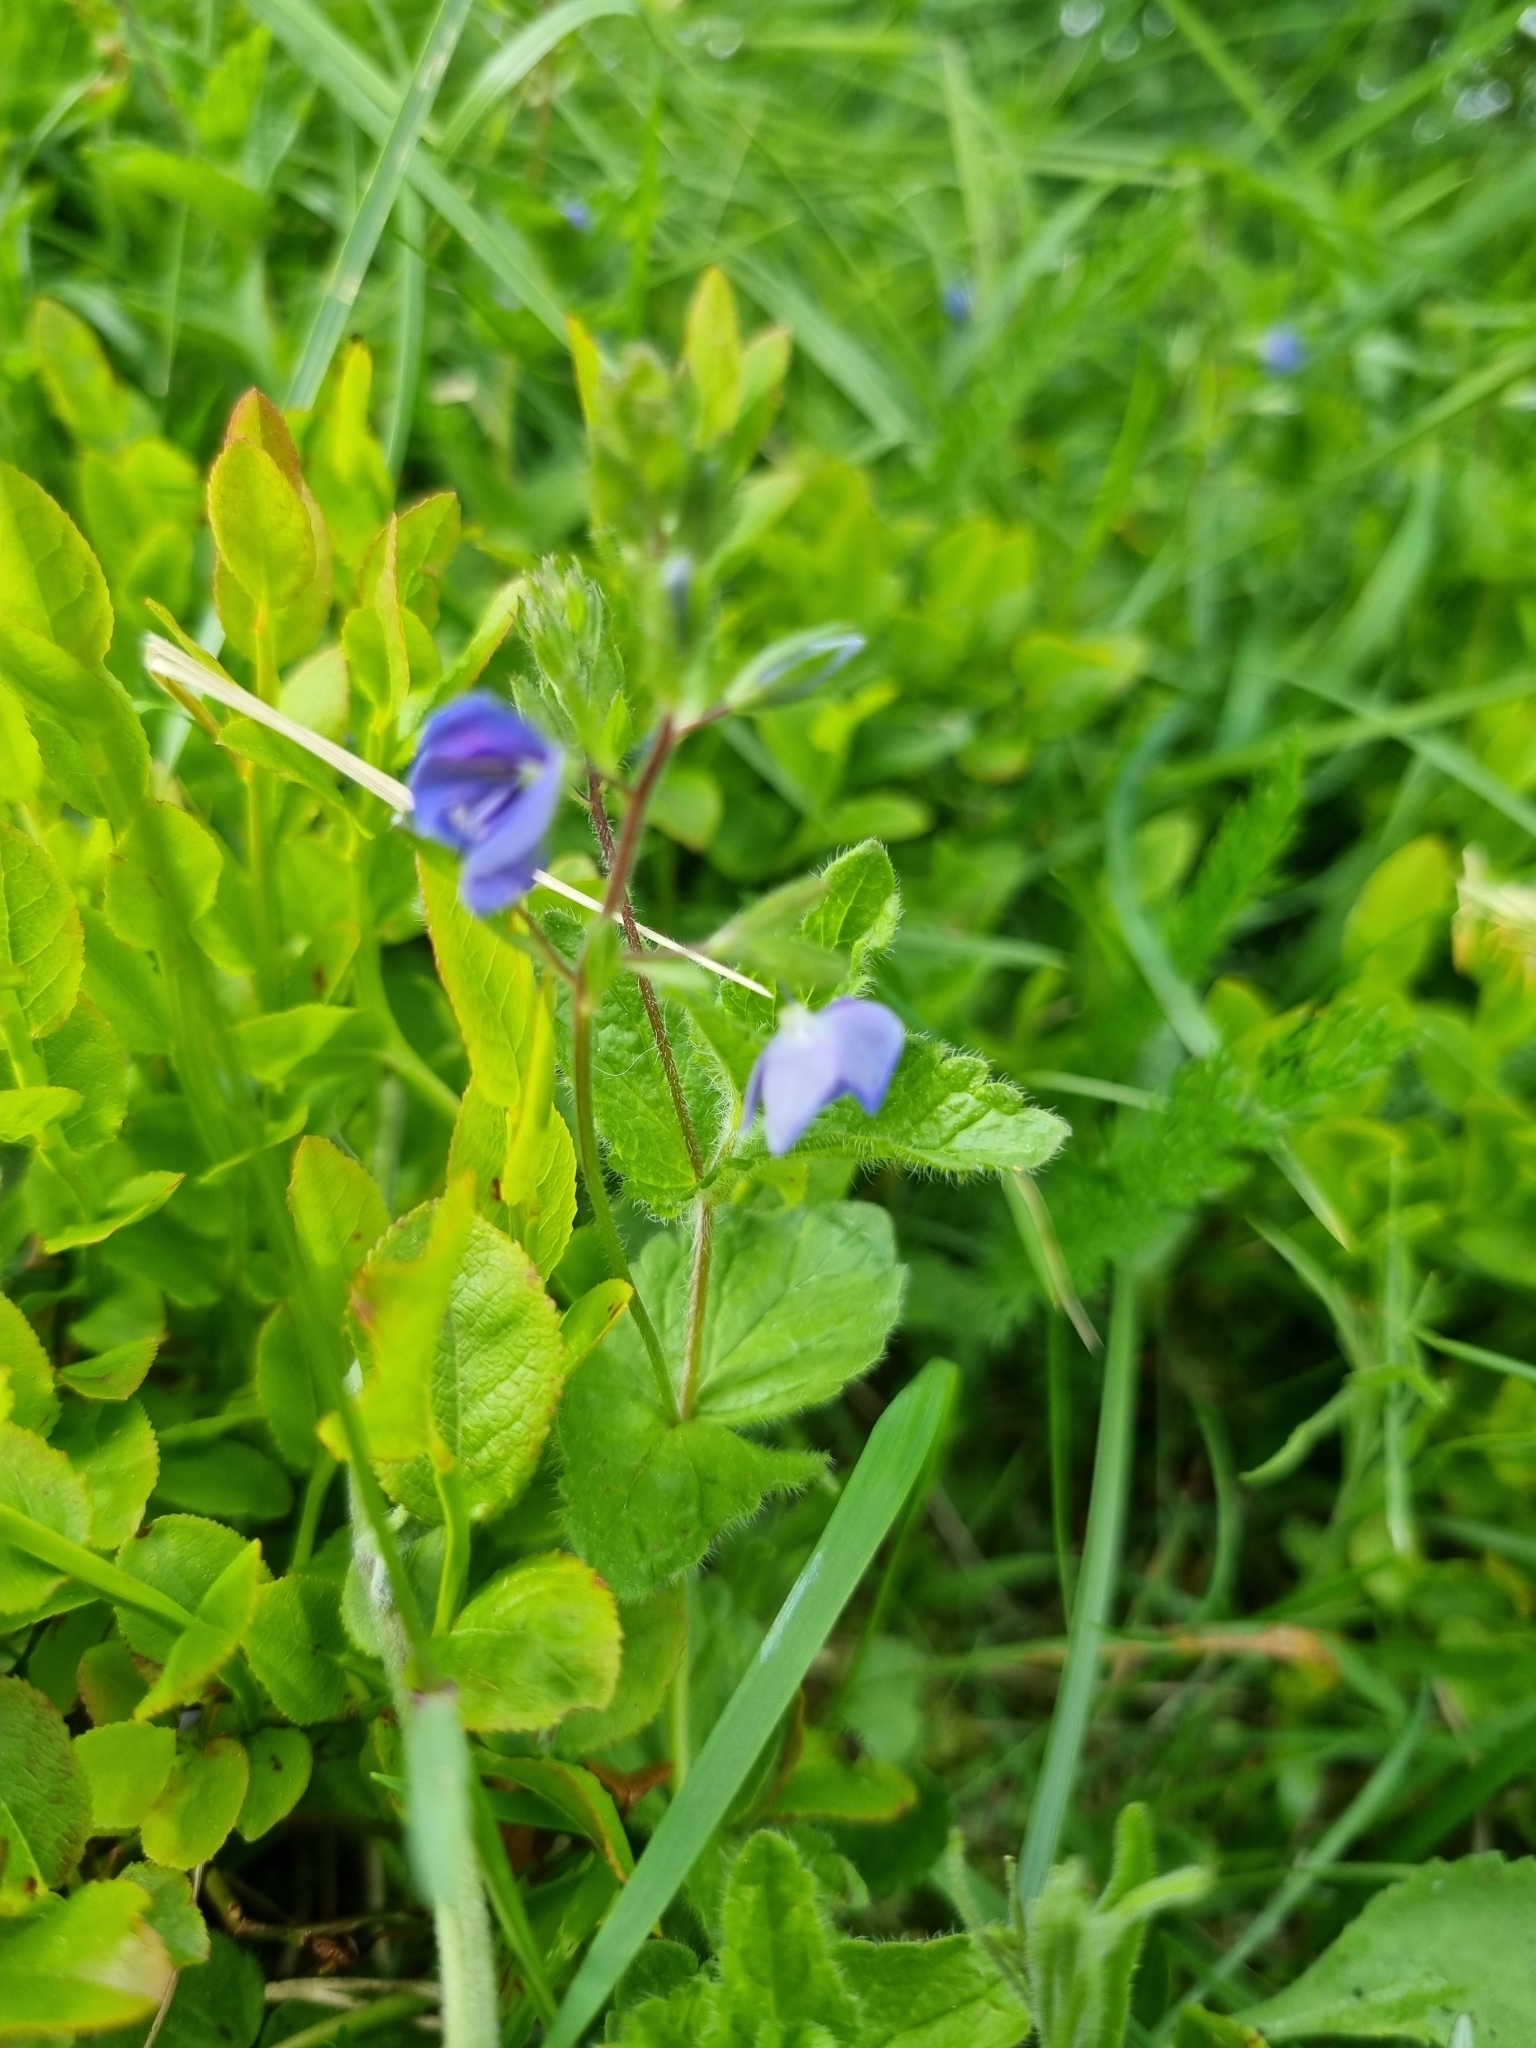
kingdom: Plantae
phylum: Tracheophyta
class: Magnoliopsida
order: Lamiales
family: Plantaginaceae
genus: Veronica
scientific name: Veronica chamaedrys
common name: Germander speedwell
